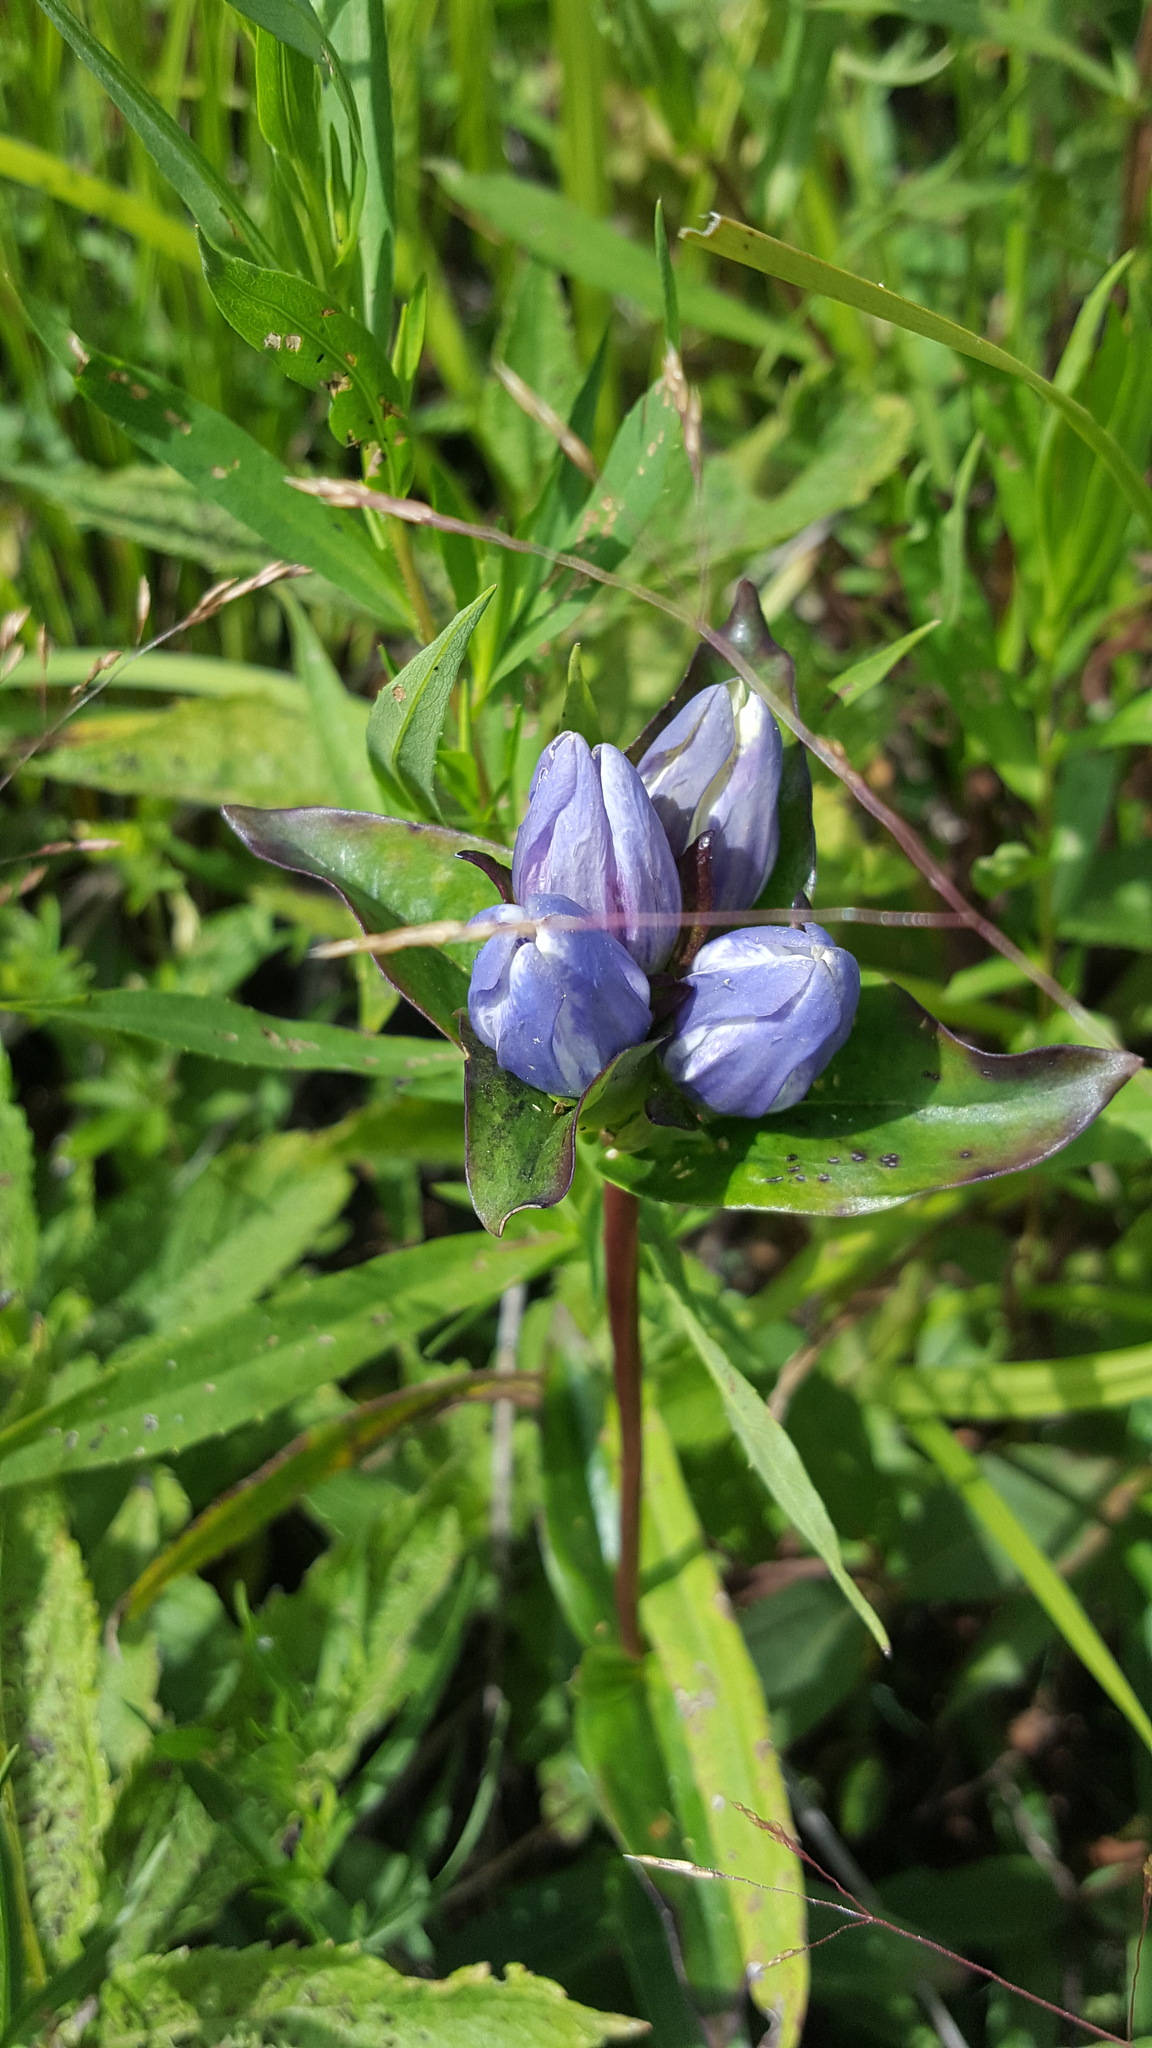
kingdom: Plantae
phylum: Tracheophyta
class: Magnoliopsida
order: Gentianales
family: Gentianaceae
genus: Gentiana
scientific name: Gentiana rubricaulis
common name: Purple-stemmed gentian
